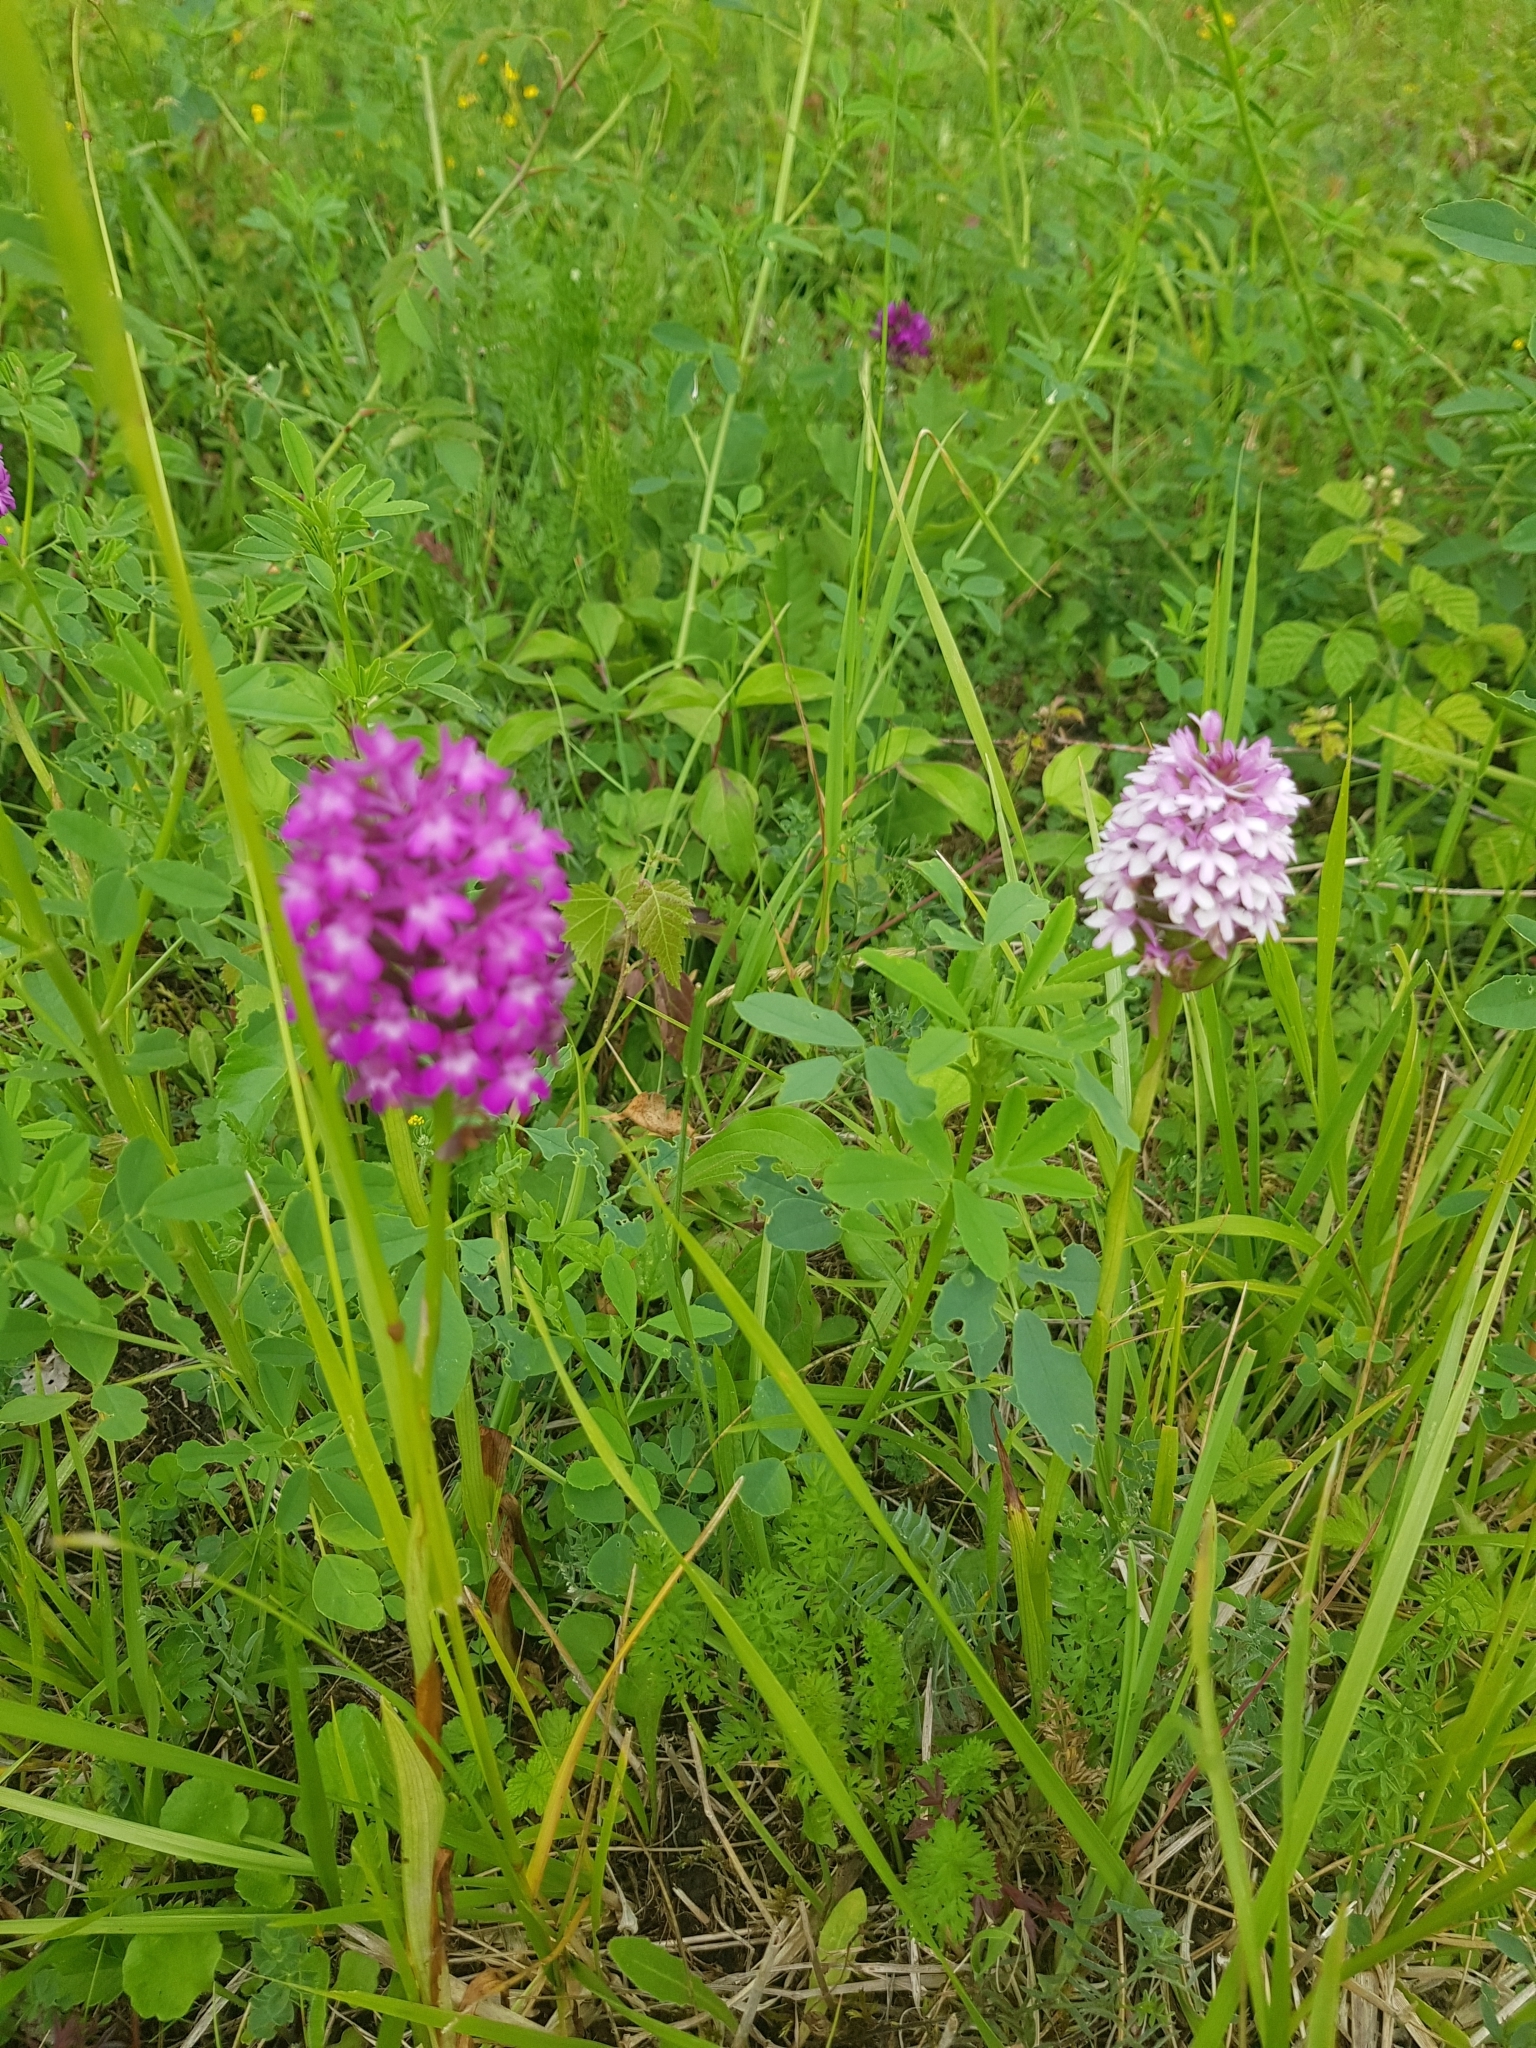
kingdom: Plantae
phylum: Tracheophyta
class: Liliopsida
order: Asparagales
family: Orchidaceae
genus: Anacamptis
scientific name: Anacamptis pyramidalis
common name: Pyramidal orchid
